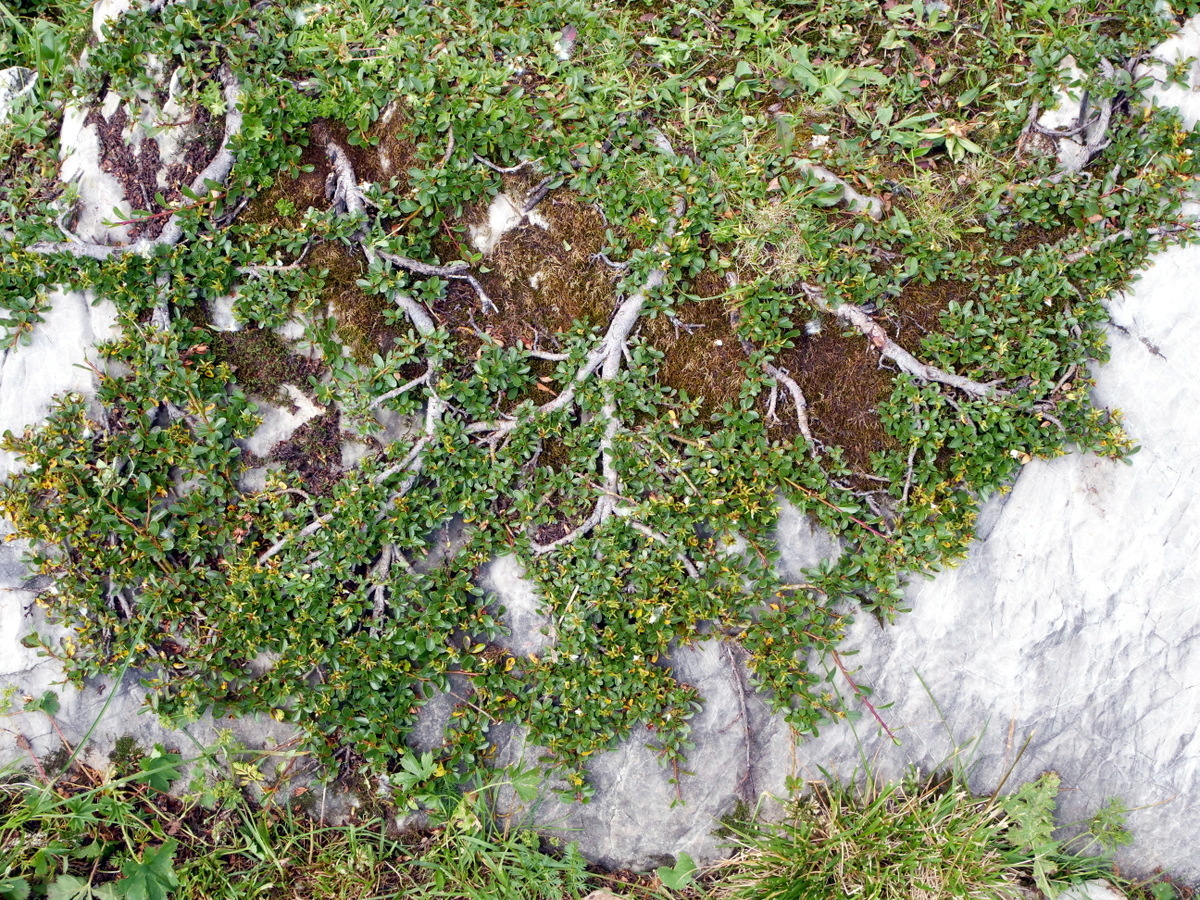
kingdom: Plantae
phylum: Tracheophyta
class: Magnoliopsida
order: Malpighiales
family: Salicaceae
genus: Salix
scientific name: Salix retusa
